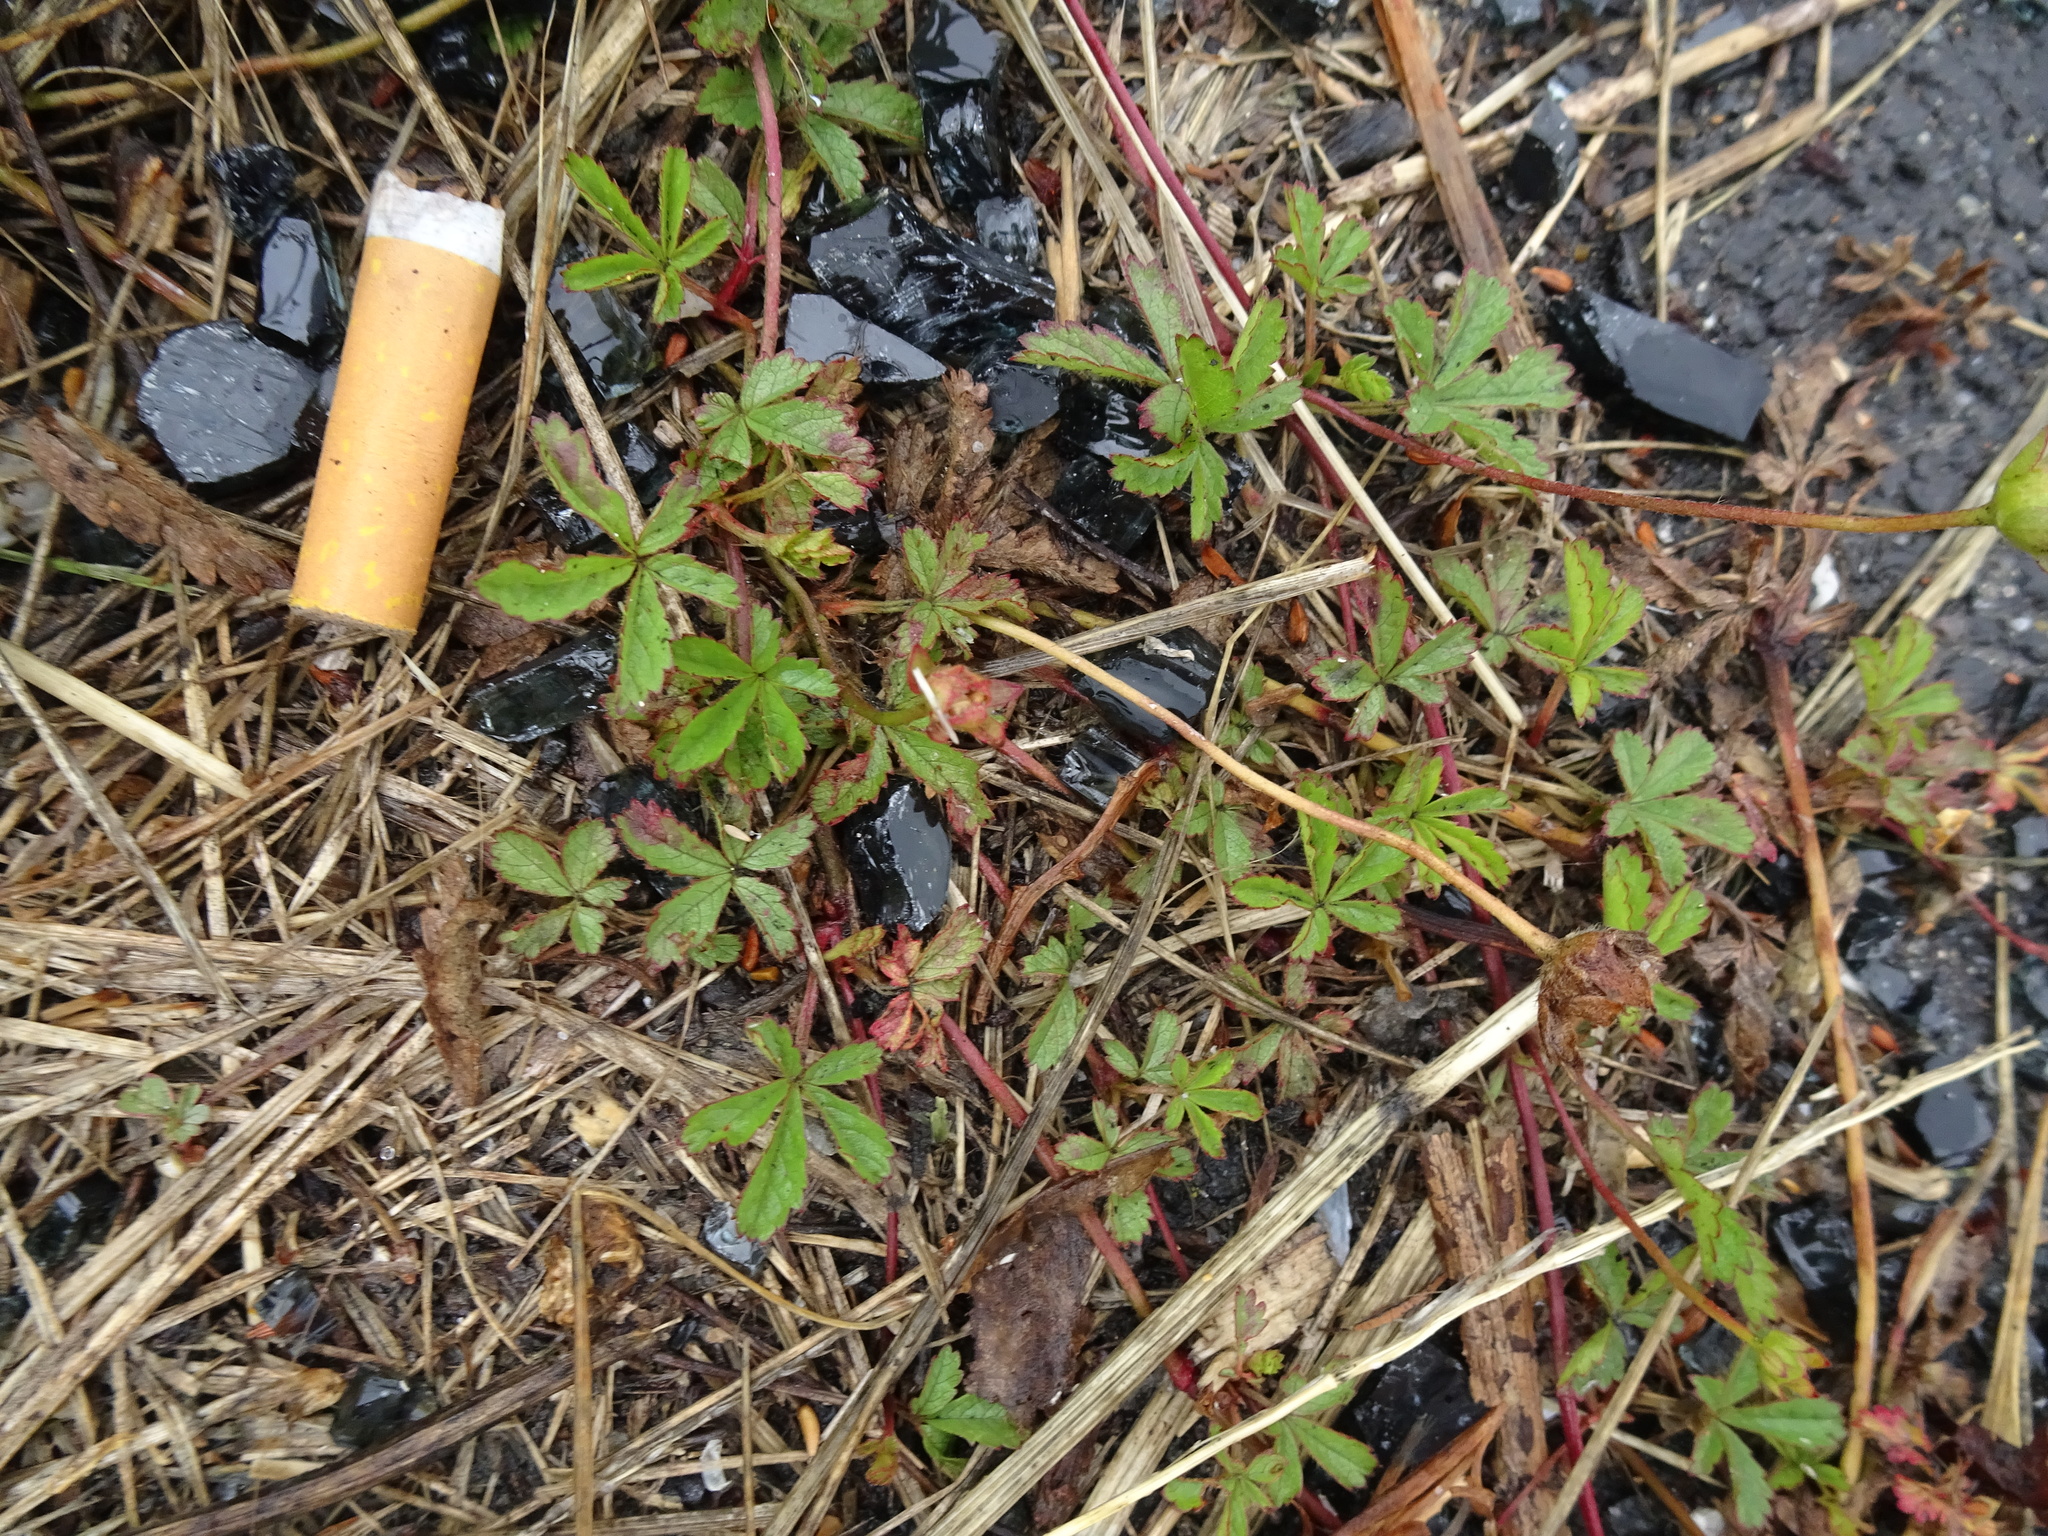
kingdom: Plantae
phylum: Tracheophyta
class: Magnoliopsida
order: Rosales
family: Rosaceae
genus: Potentilla
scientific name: Potentilla reptans
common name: Creeping cinquefoil
